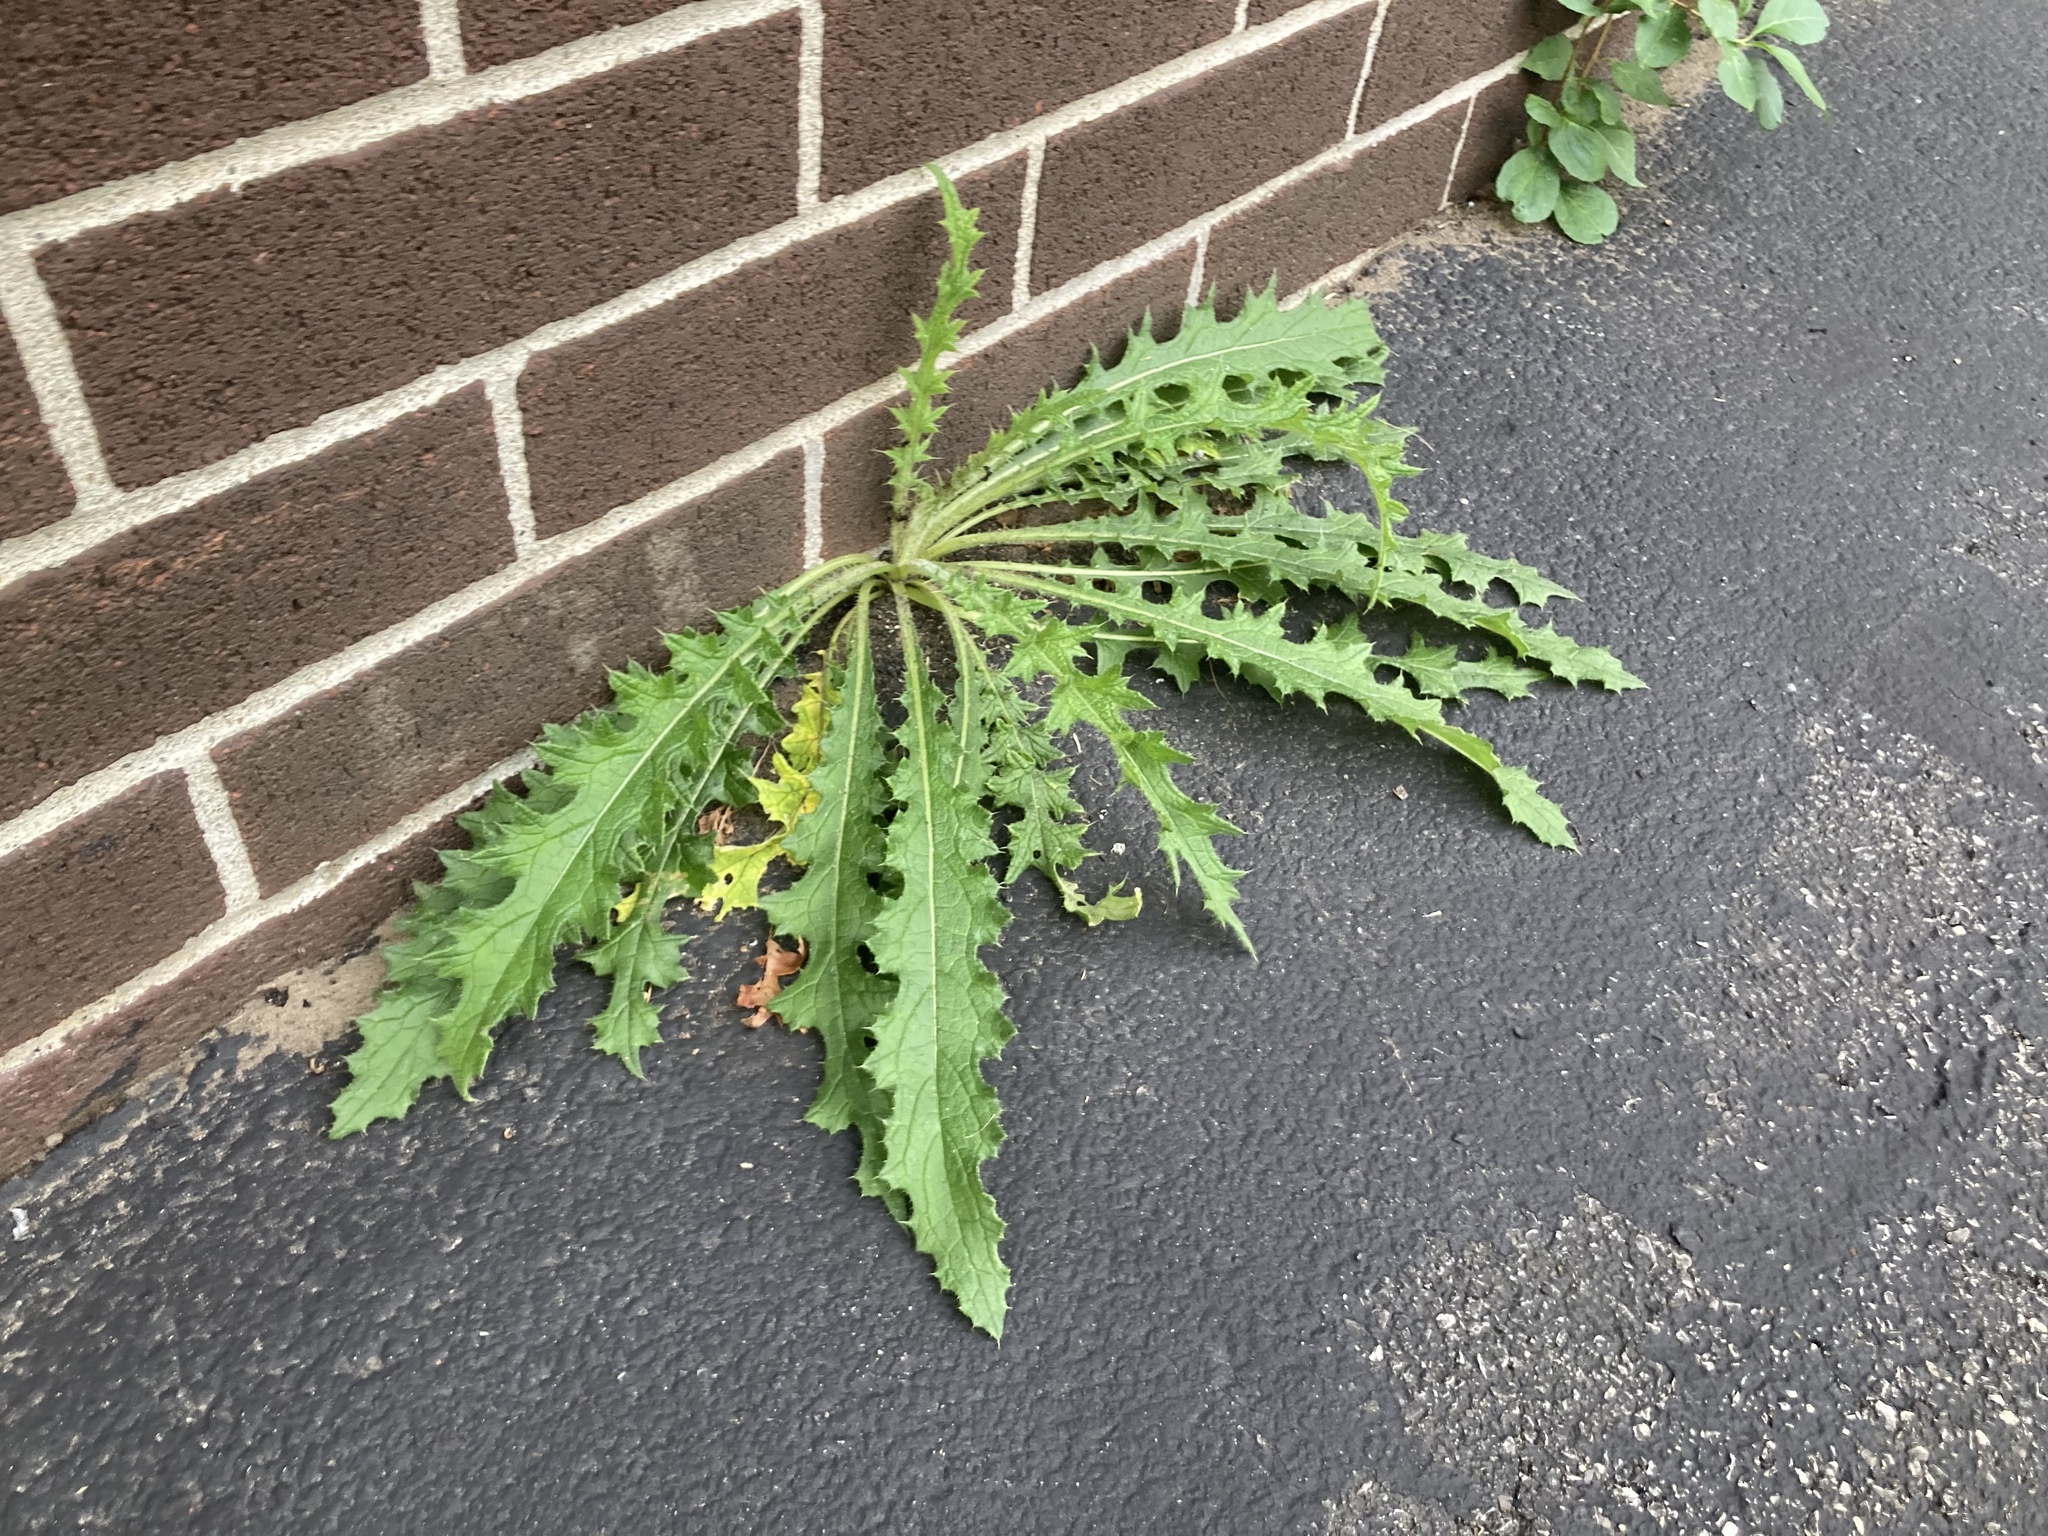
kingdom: Plantae
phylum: Tracheophyta
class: Magnoliopsida
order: Asterales
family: Asteraceae
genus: Cirsium
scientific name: Cirsium arvense
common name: Creeping thistle
